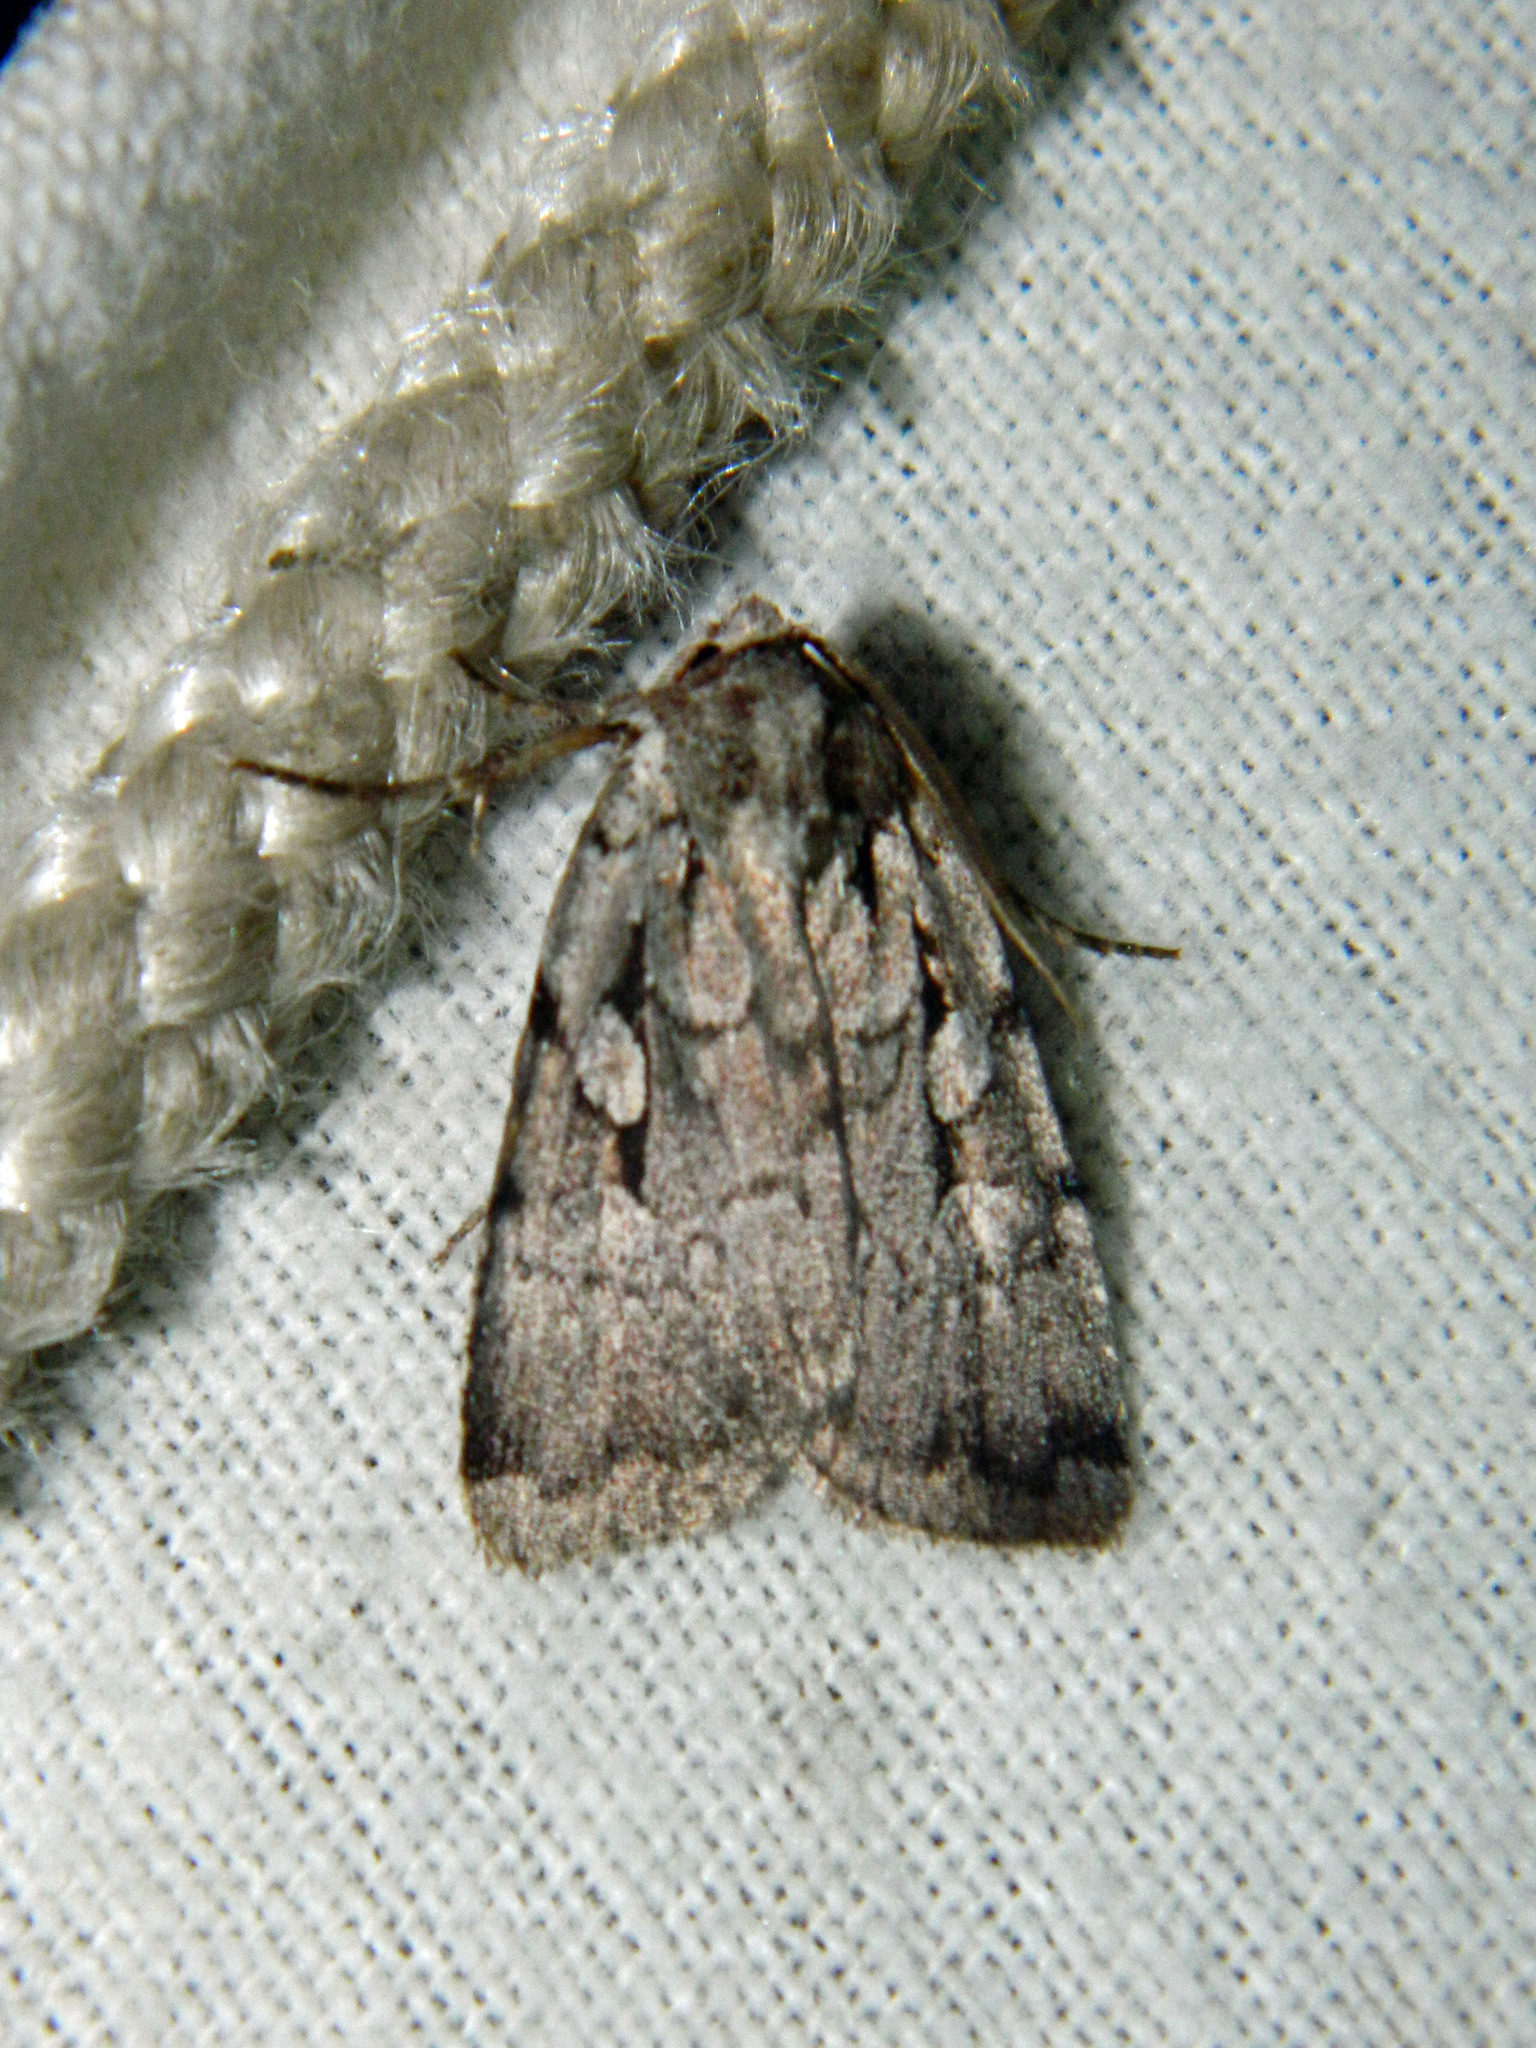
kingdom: Animalia
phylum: Arthropoda
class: Insecta
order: Lepidoptera
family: Noctuidae
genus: Xestia
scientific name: Xestia badicollis
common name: Northern variable dart
